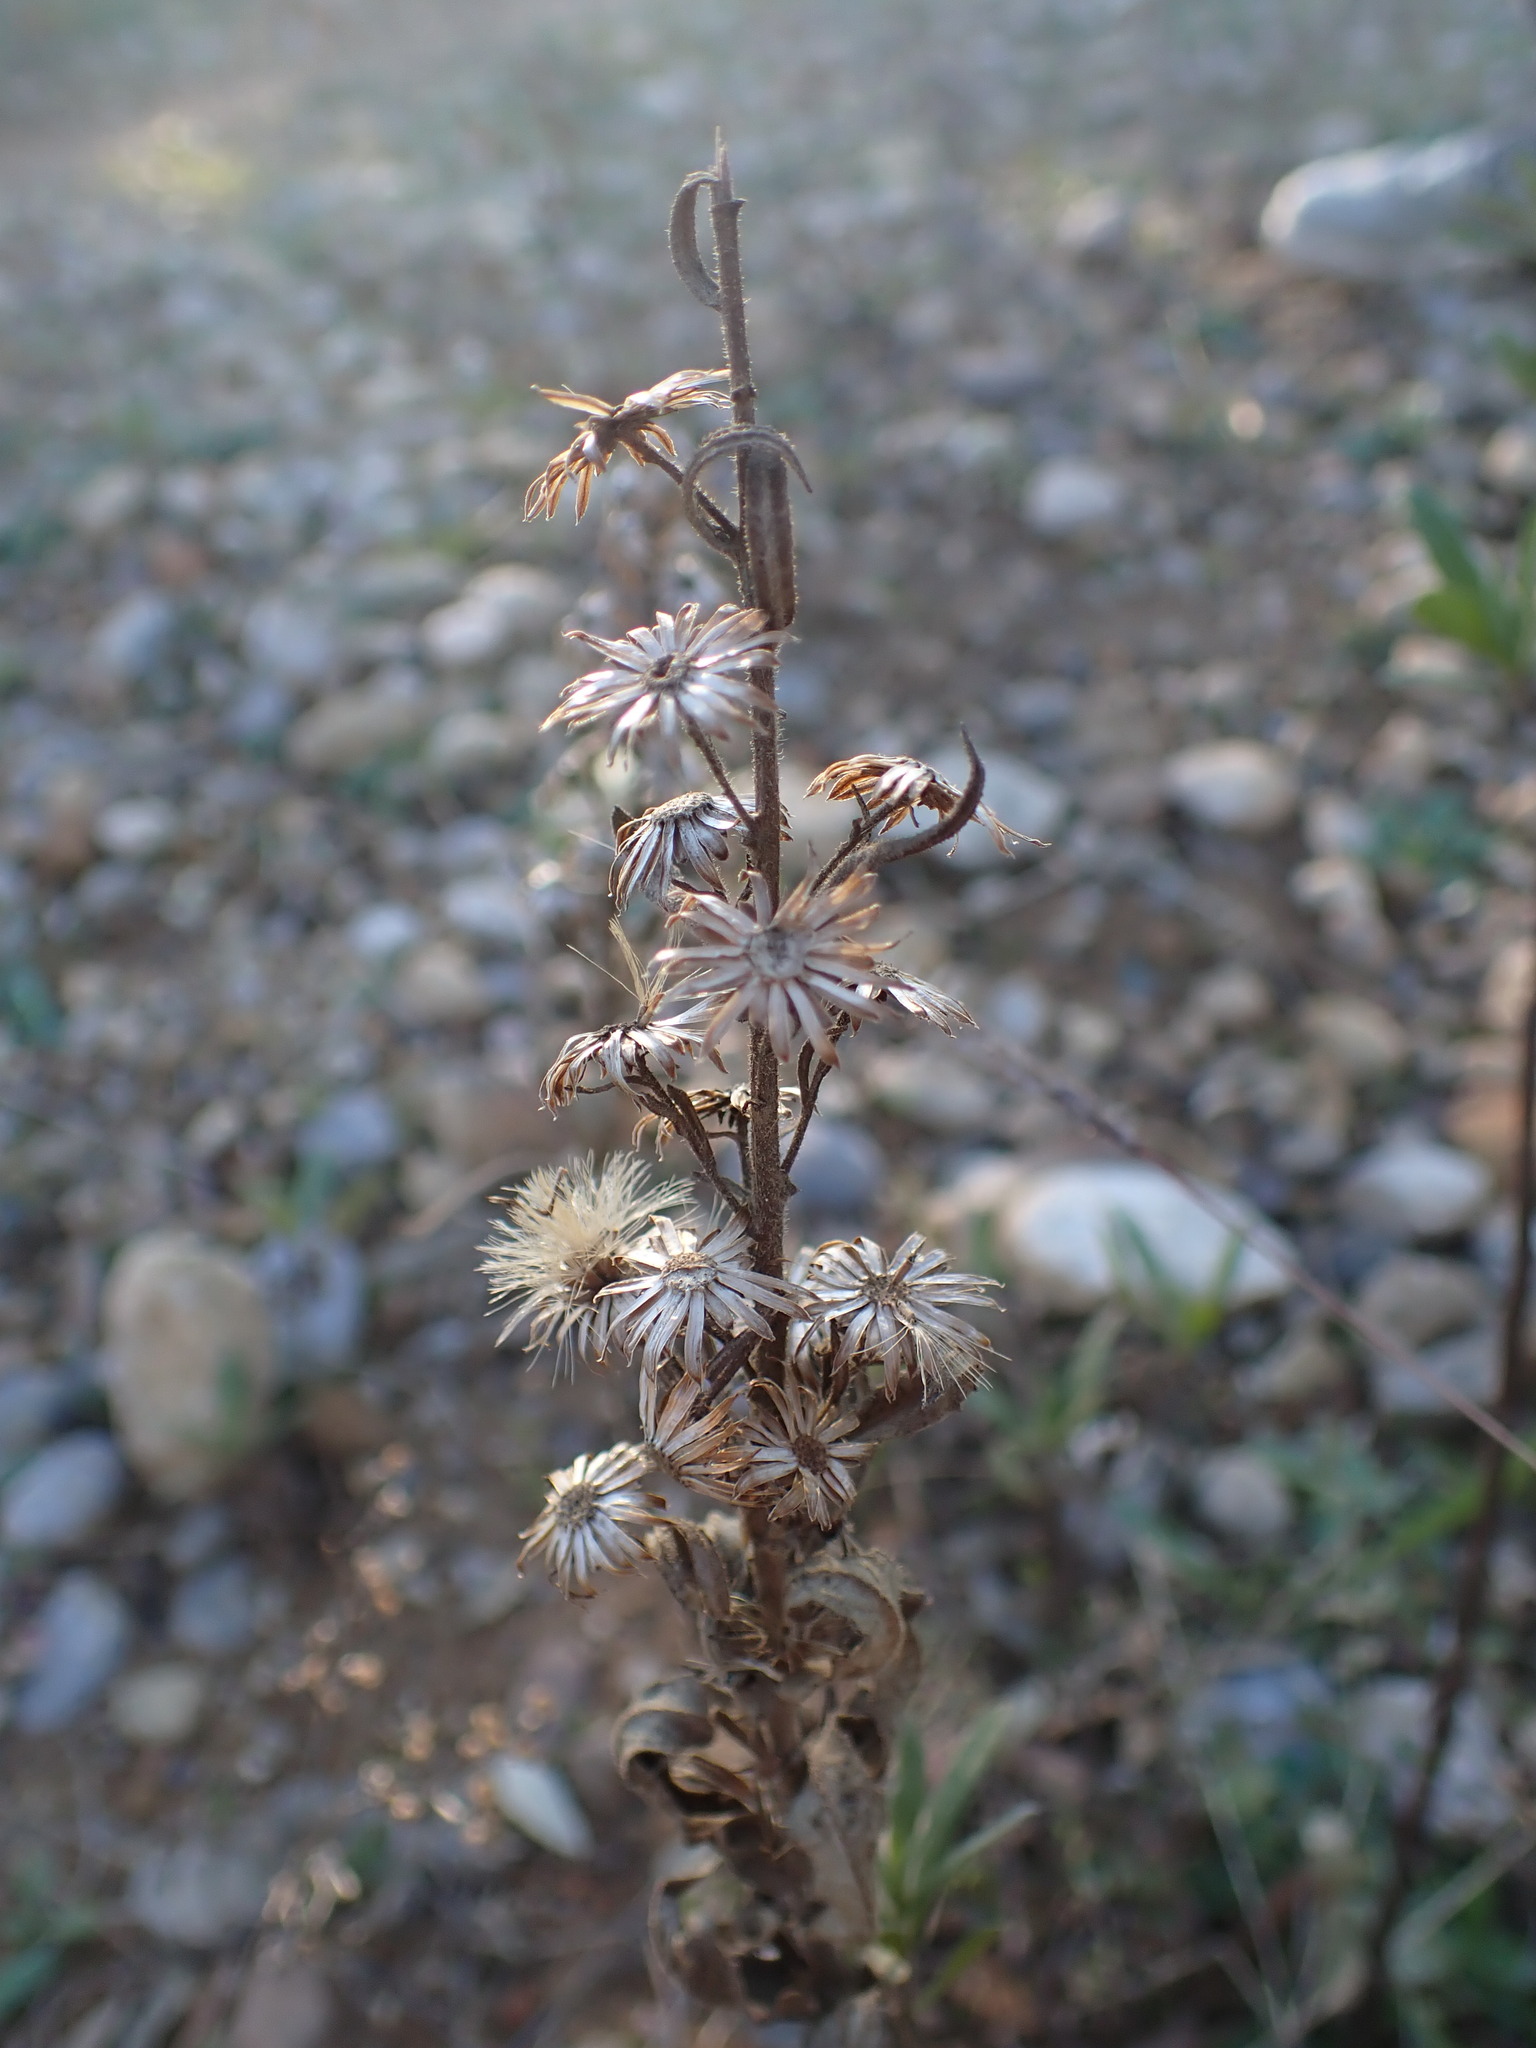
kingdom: Plantae
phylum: Tracheophyta
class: Magnoliopsida
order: Asterales
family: Asteraceae
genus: Dittrichia
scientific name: Dittrichia viscosa
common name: Woody fleabane
